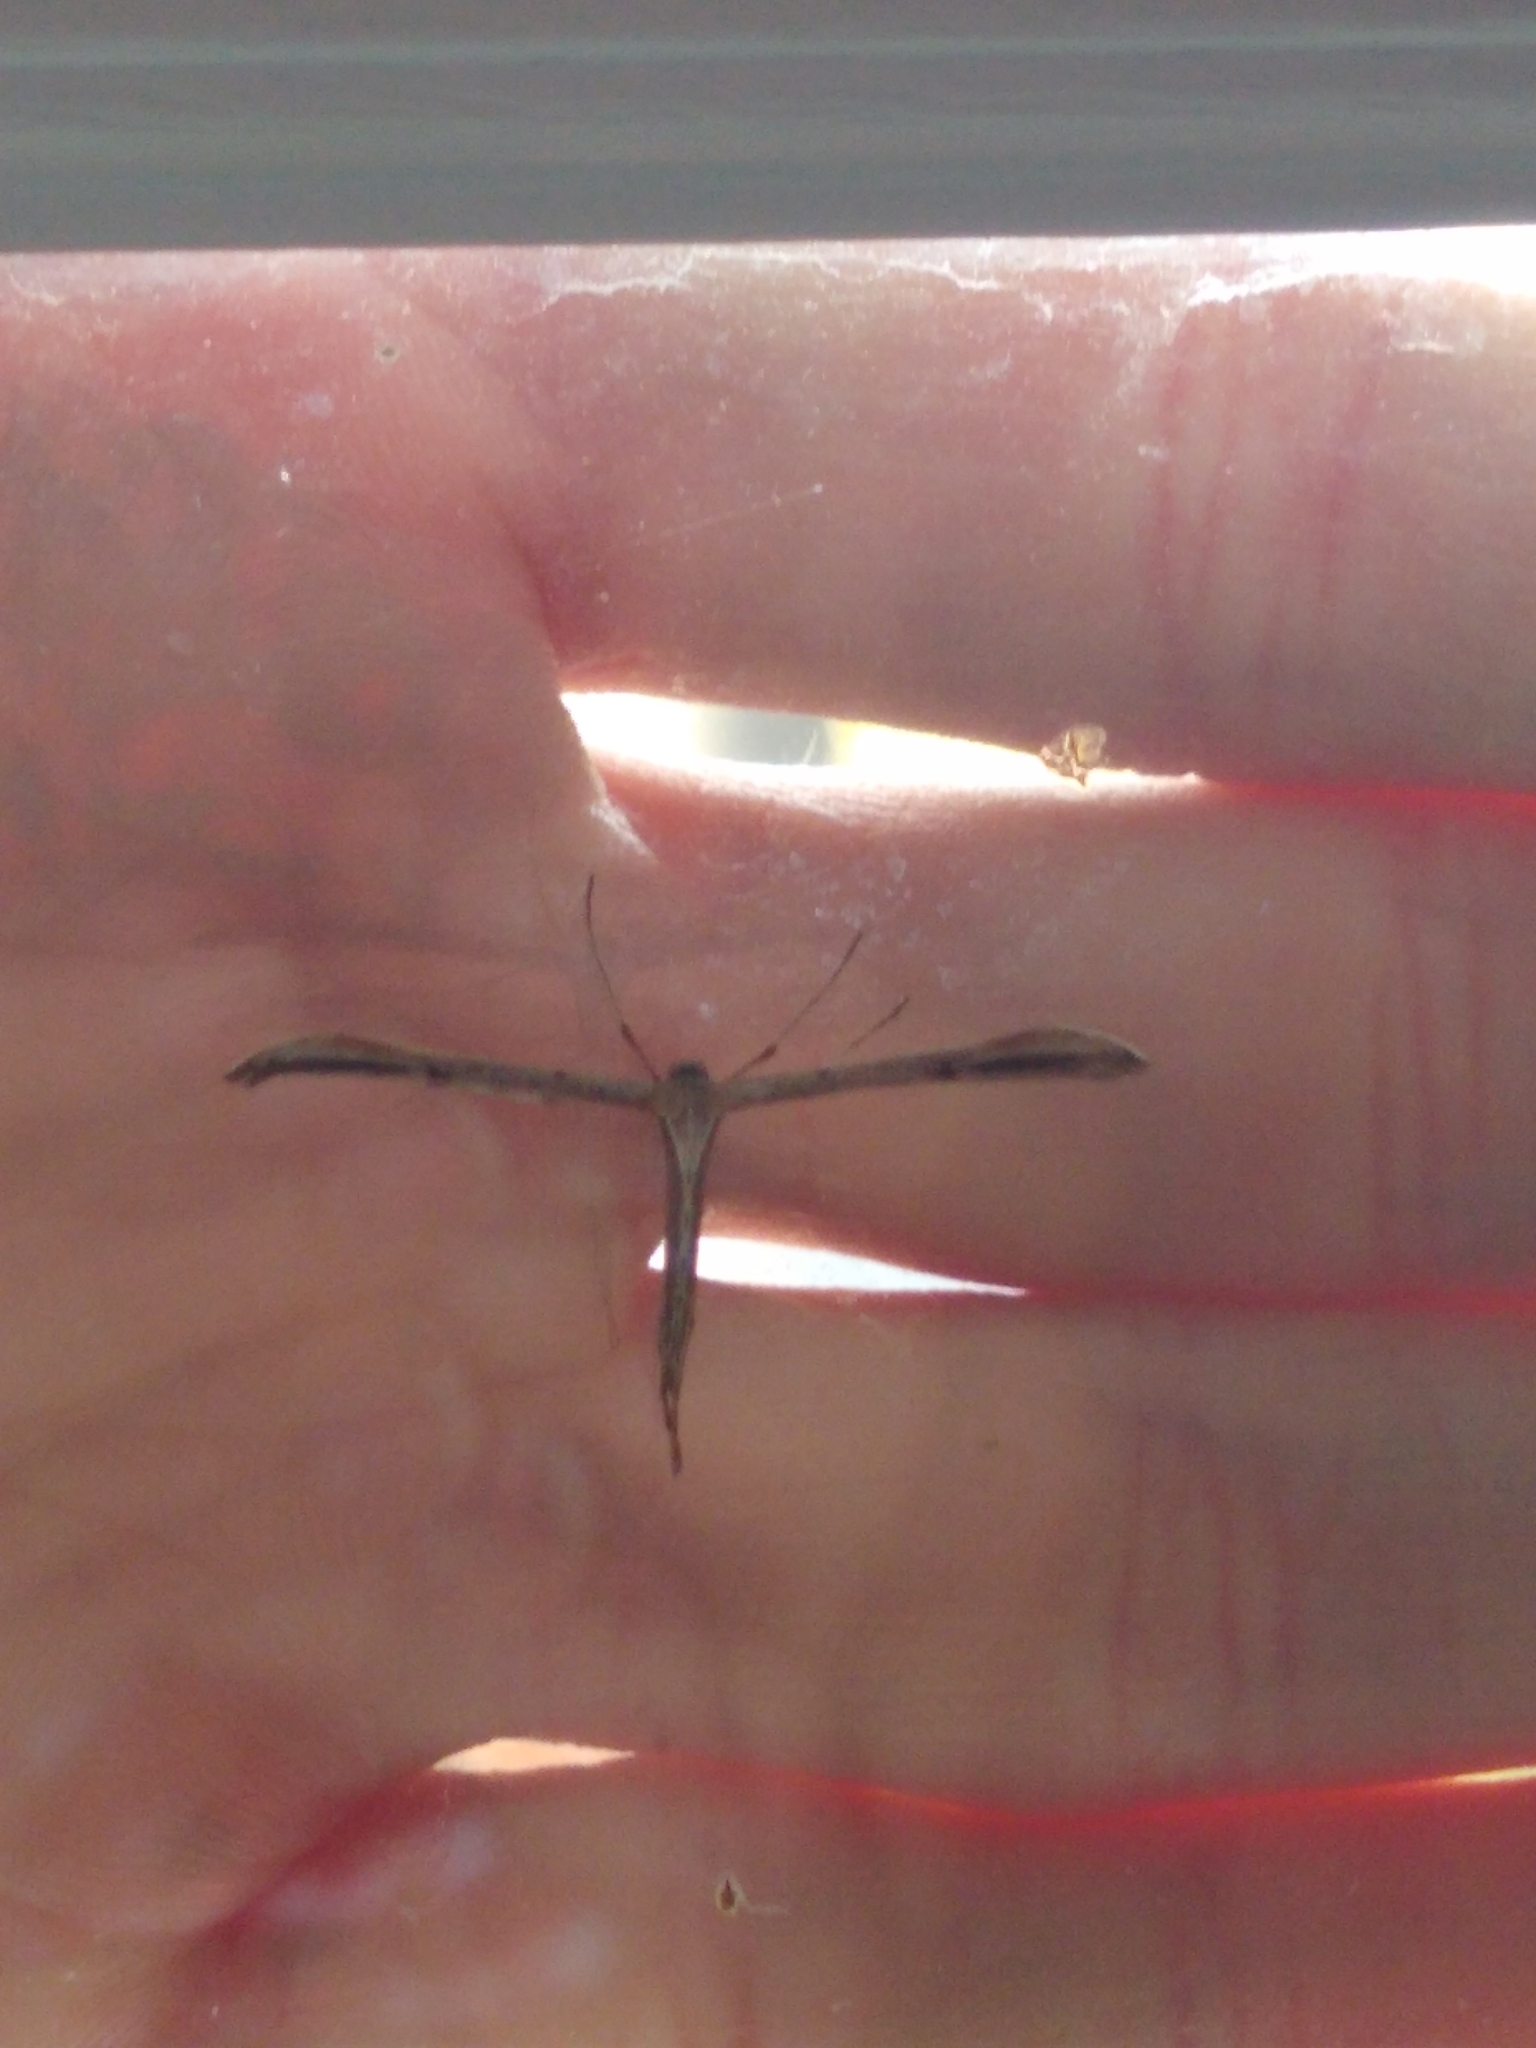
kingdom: Animalia
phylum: Arthropoda
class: Insecta
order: Lepidoptera
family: Pterophoridae
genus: Emmelina
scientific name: Emmelina monodactyla
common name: Common plume
